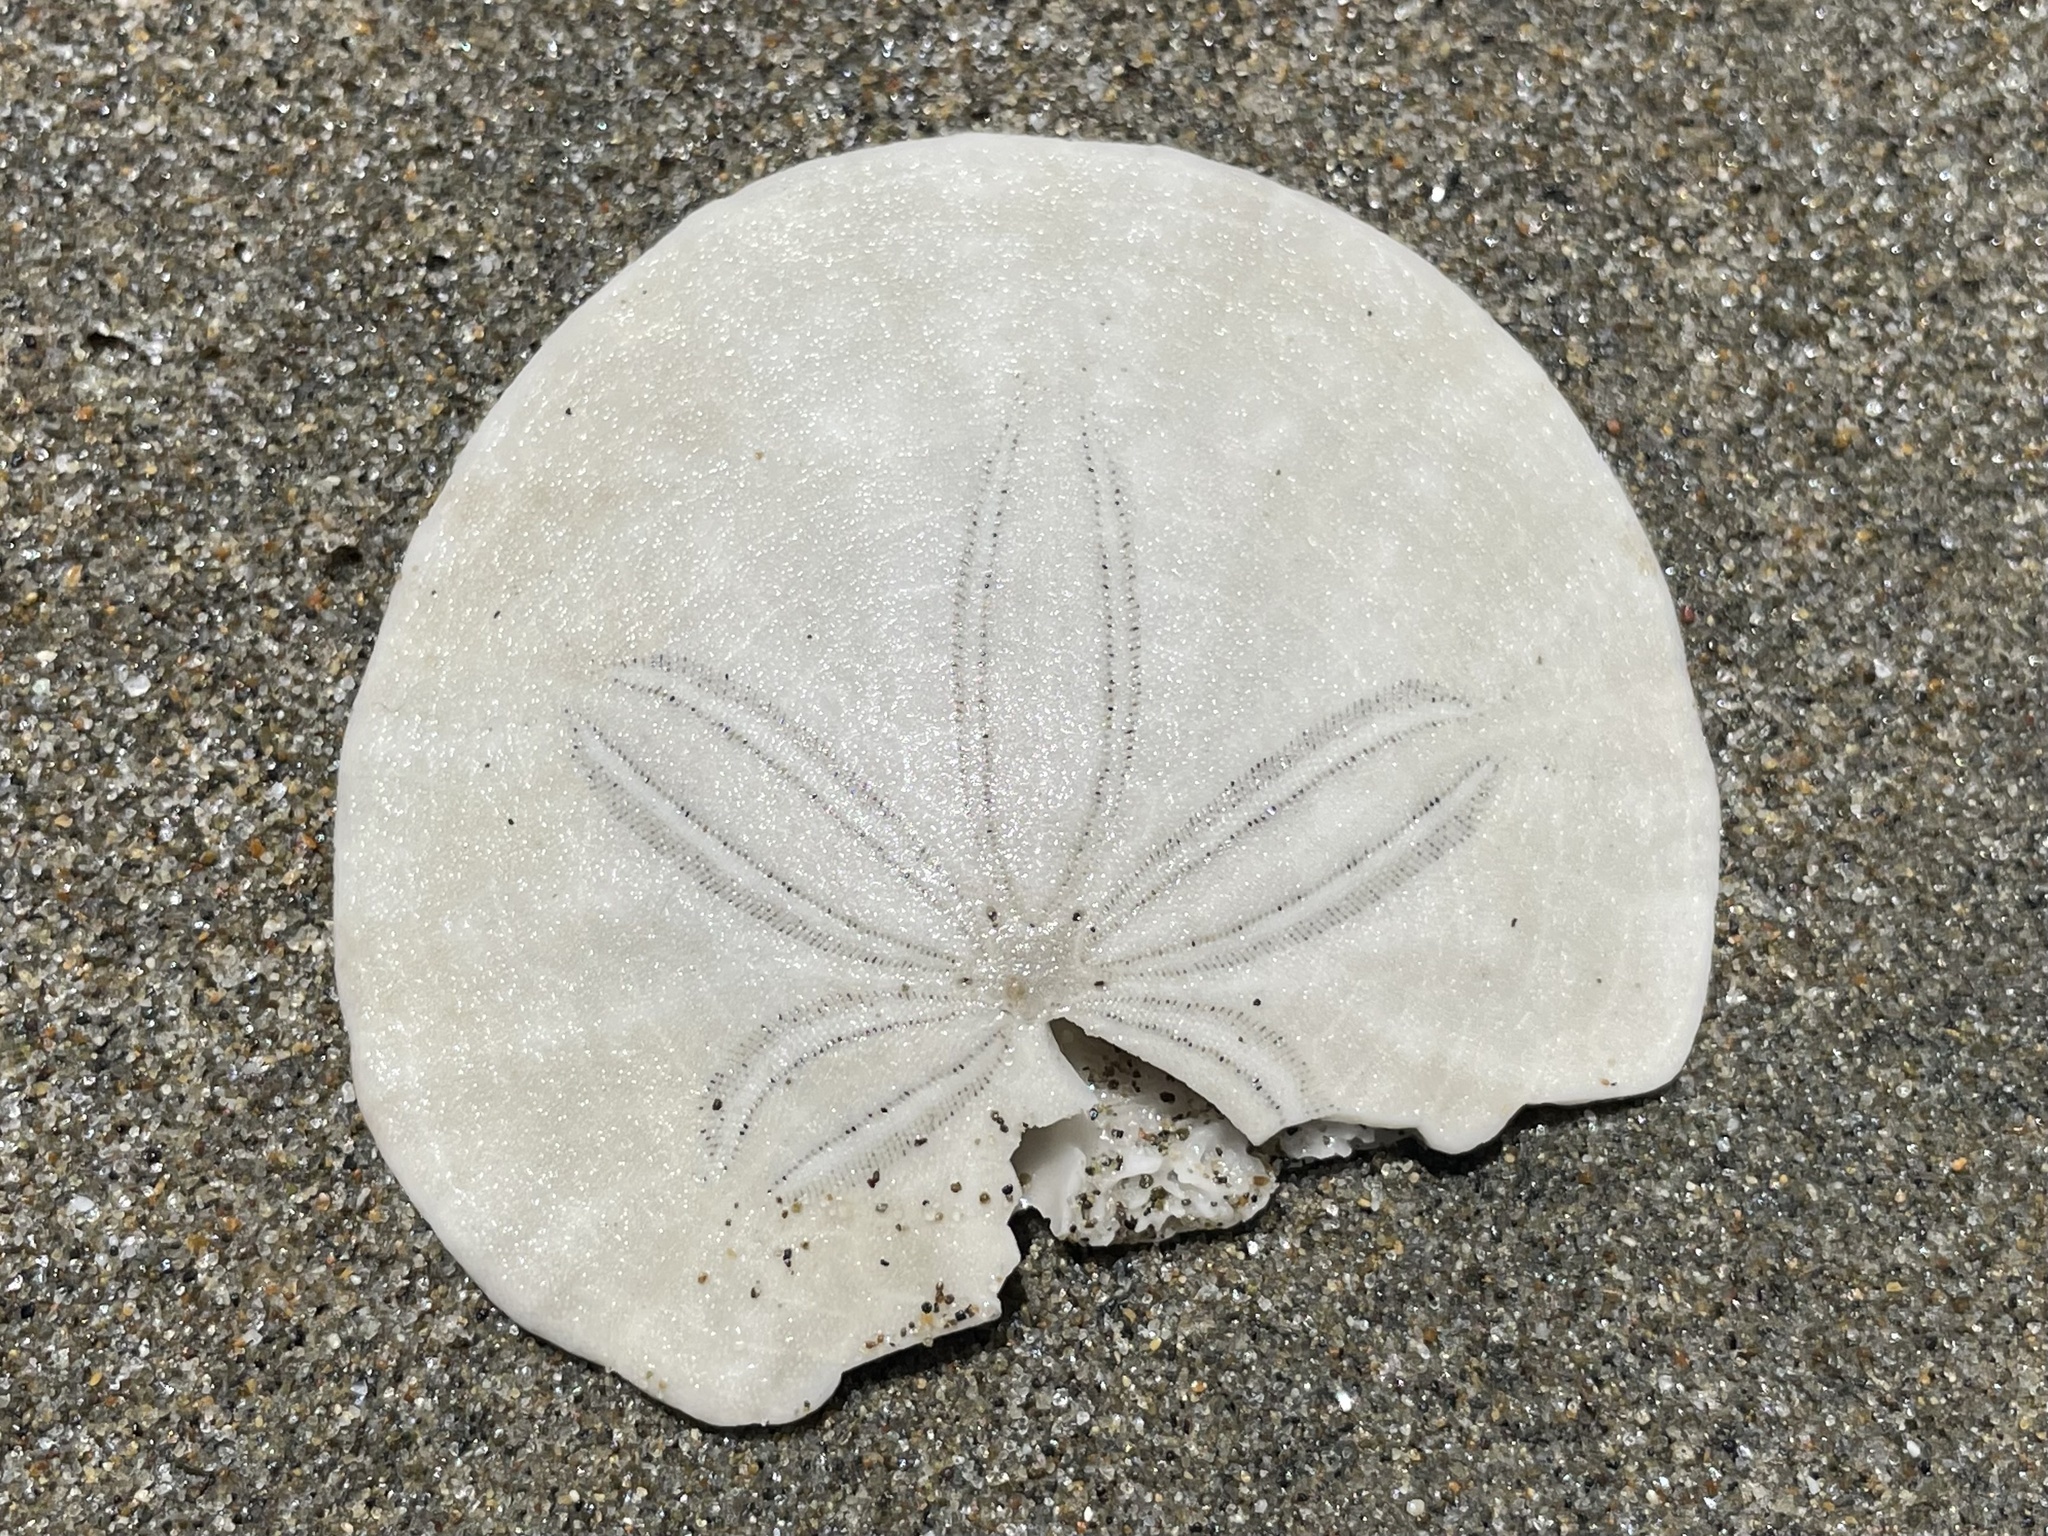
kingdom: Animalia
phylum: Echinodermata
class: Echinoidea
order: Echinolampadacea
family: Dendrasteridae
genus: Dendraster
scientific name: Dendraster excentricus
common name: Eccentric sand dollar sea urchin
